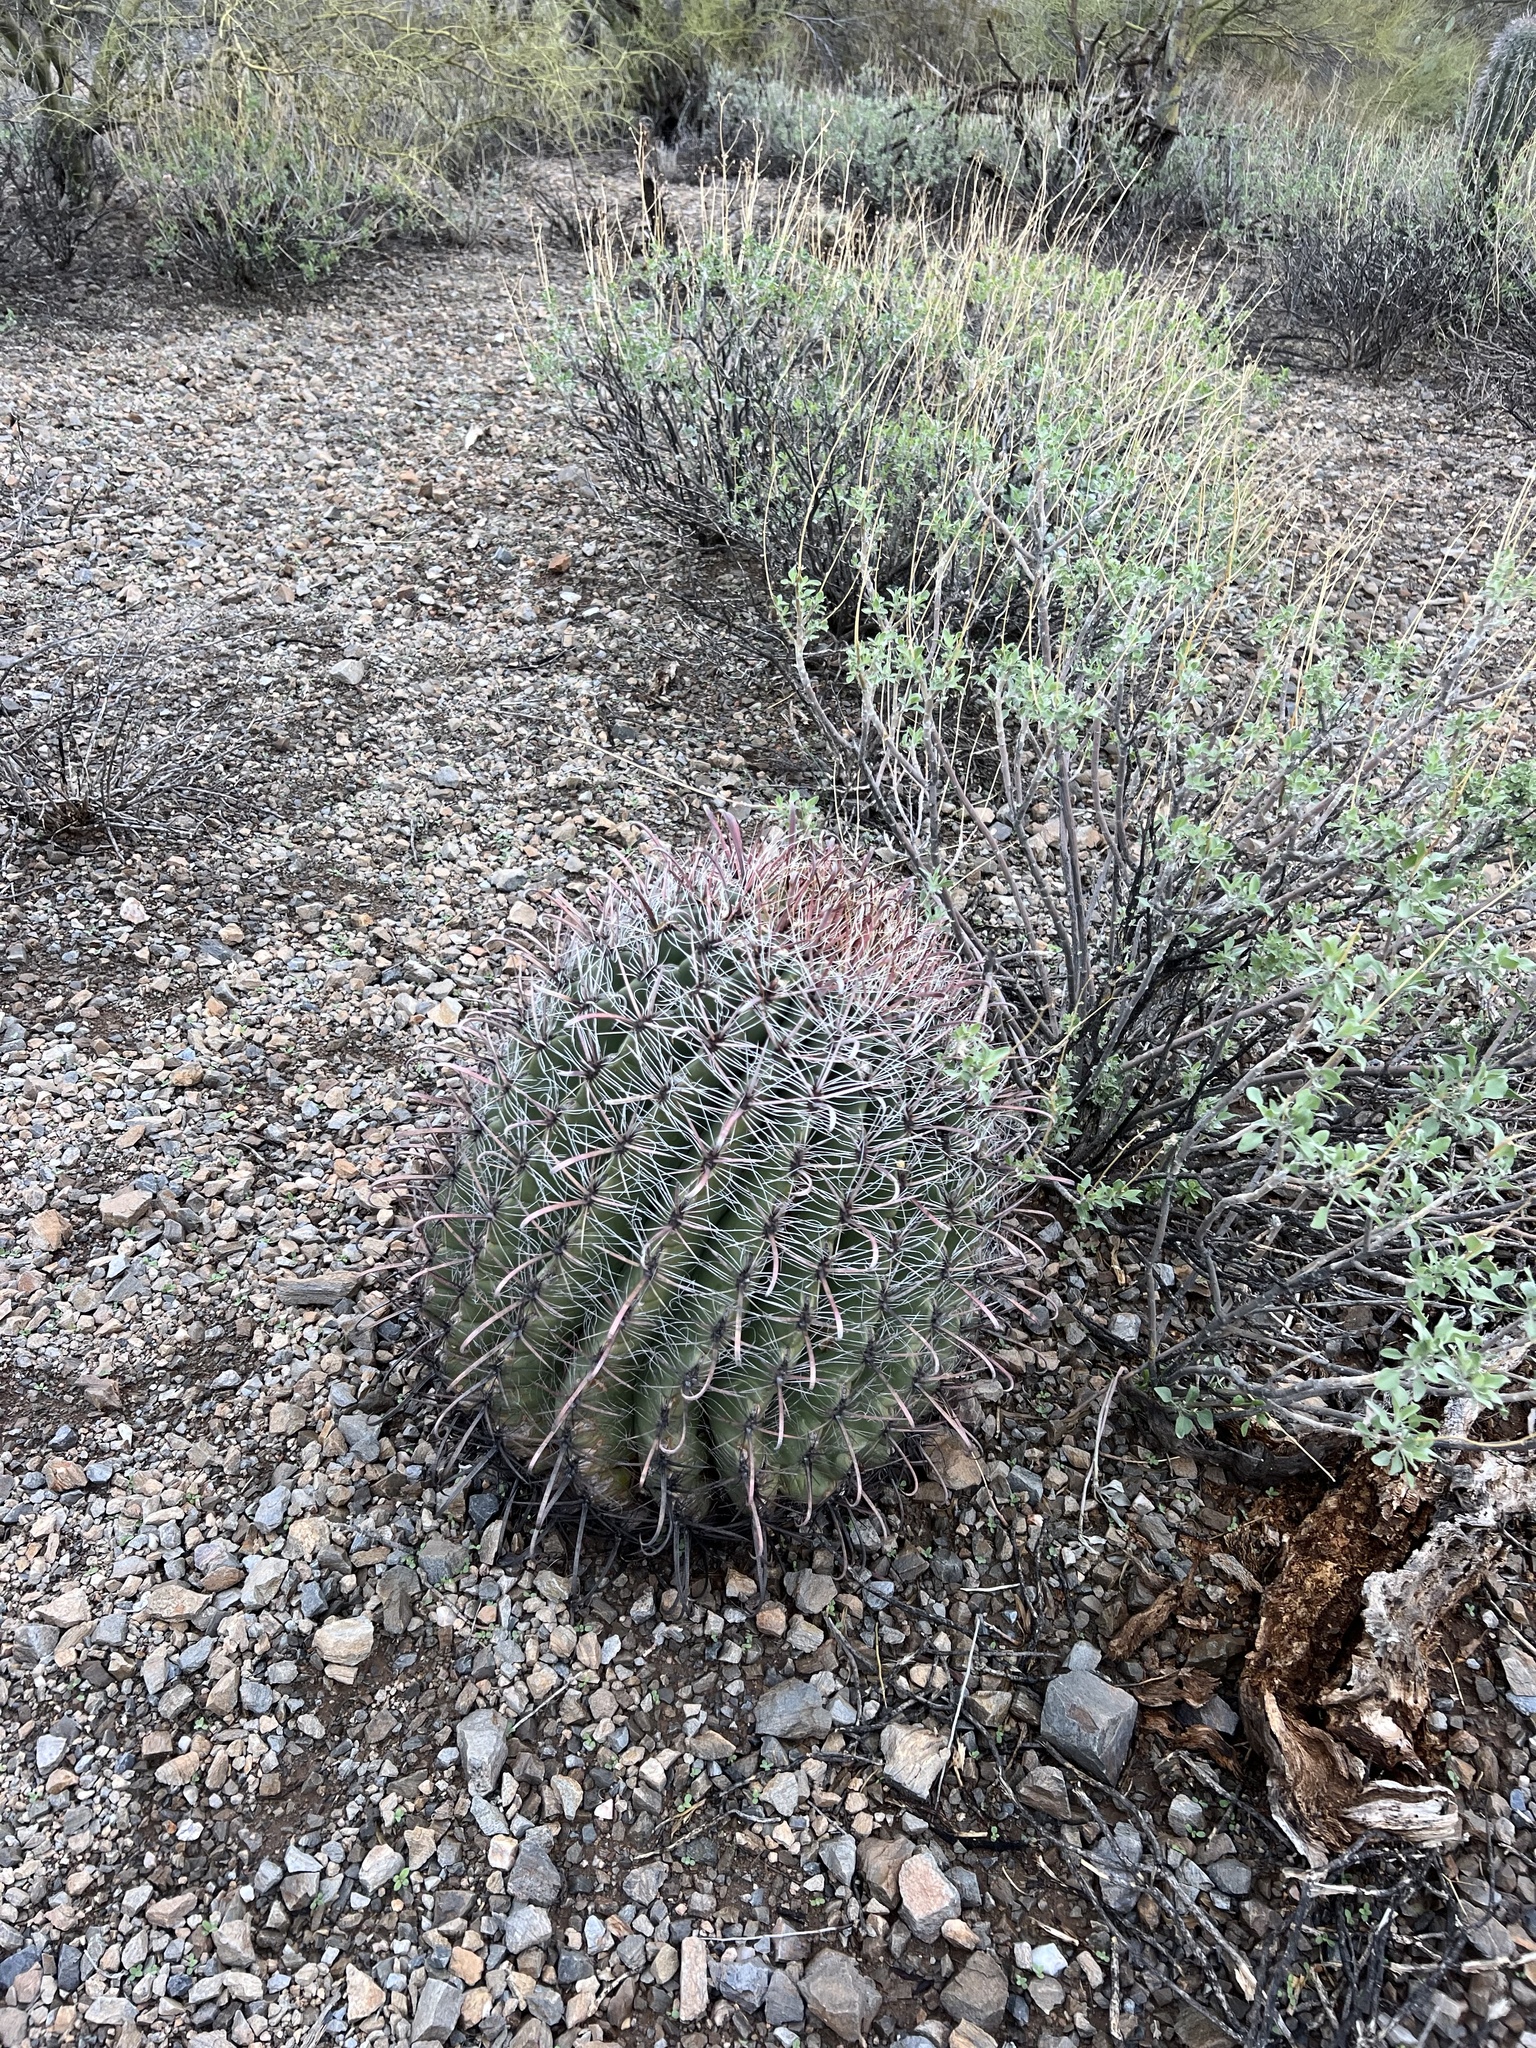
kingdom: Plantae
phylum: Tracheophyta
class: Magnoliopsida
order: Caryophyllales
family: Cactaceae
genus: Ferocactus
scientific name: Ferocactus wislizeni
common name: Candy barrel cactus
